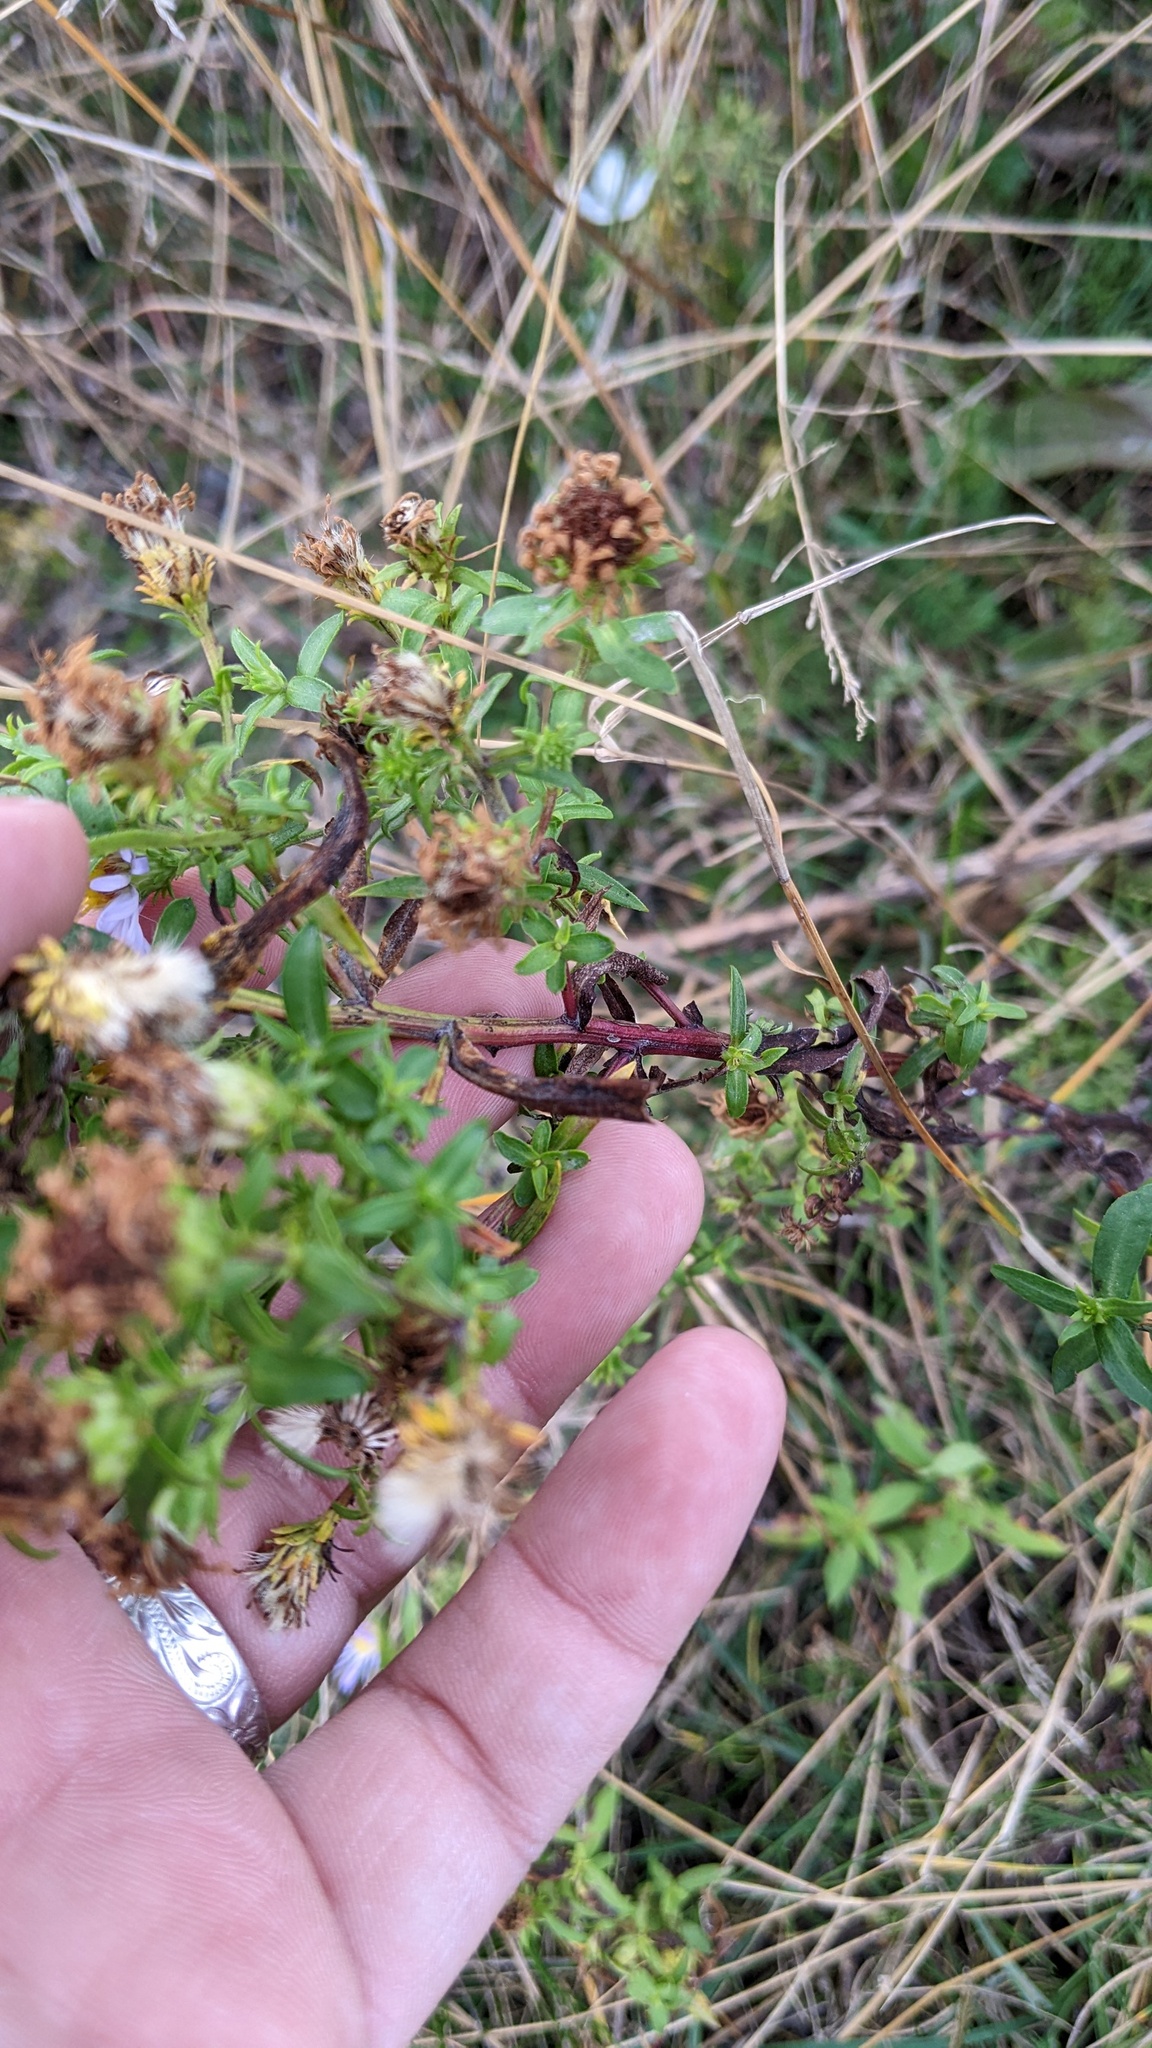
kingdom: Plantae
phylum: Tracheophyta
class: Magnoliopsida
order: Asterales
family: Asteraceae
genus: Symphyotrichum
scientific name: Symphyotrichum novi-belgii
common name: Michaelmas daisy
